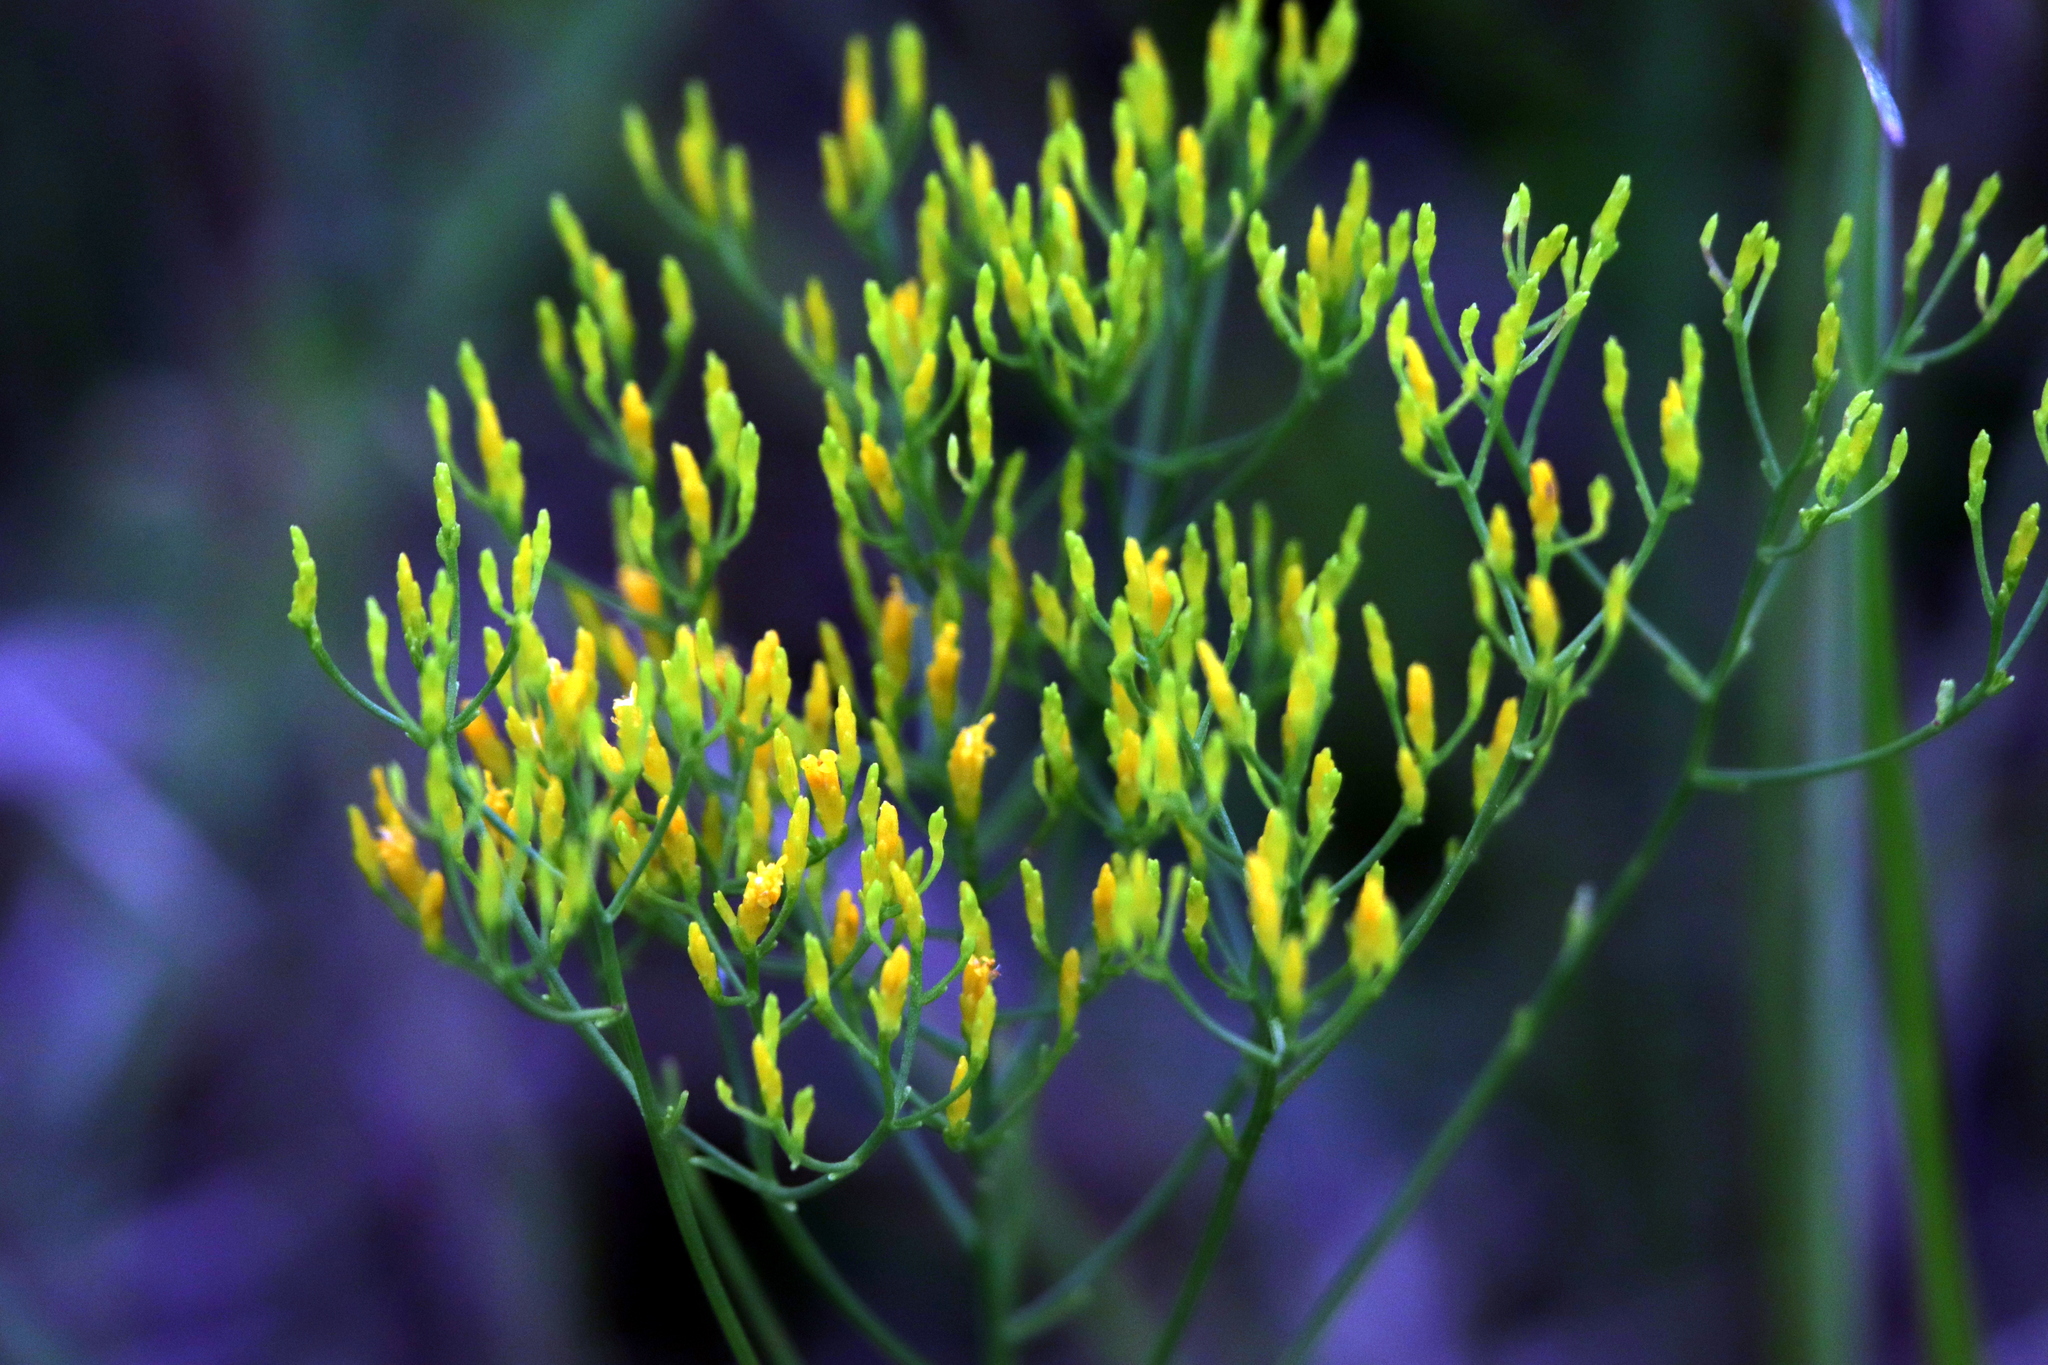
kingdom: Plantae
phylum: Tracheophyta
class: Magnoliopsida
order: Asterales
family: Asteraceae
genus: Bigelowia
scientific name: Bigelowia nudata
